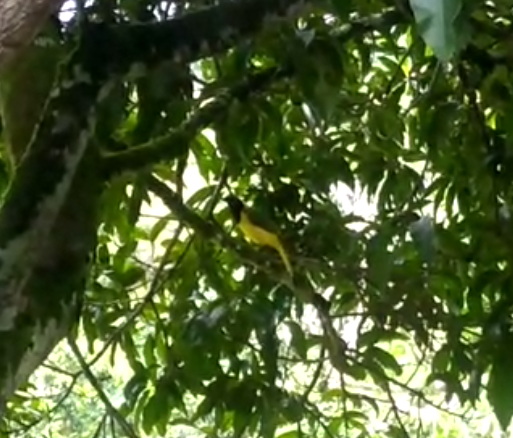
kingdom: Animalia
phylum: Chordata
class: Aves
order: Passeriformes
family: Corvidae
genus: Cyanocorax
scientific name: Cyanocorax yncas
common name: Green jay
